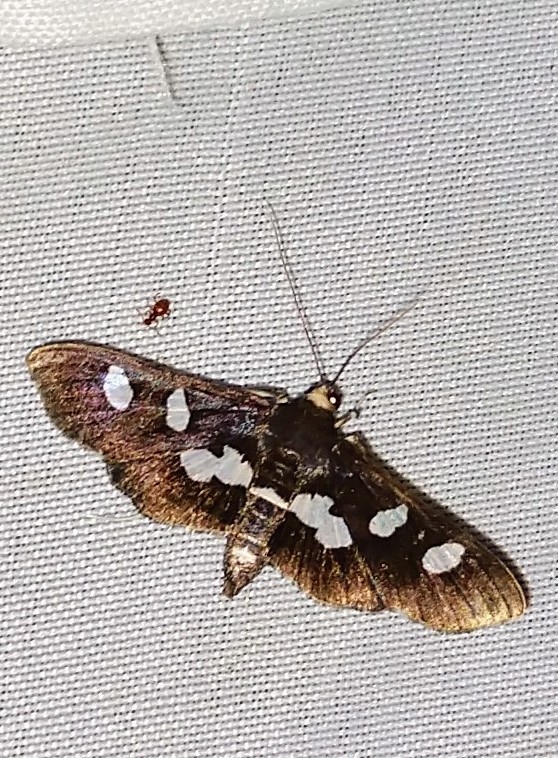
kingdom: Animalia
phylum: Arthropoda
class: Insecta
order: Lepidoptera
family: Crambidae
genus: Desmia
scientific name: Desmia
